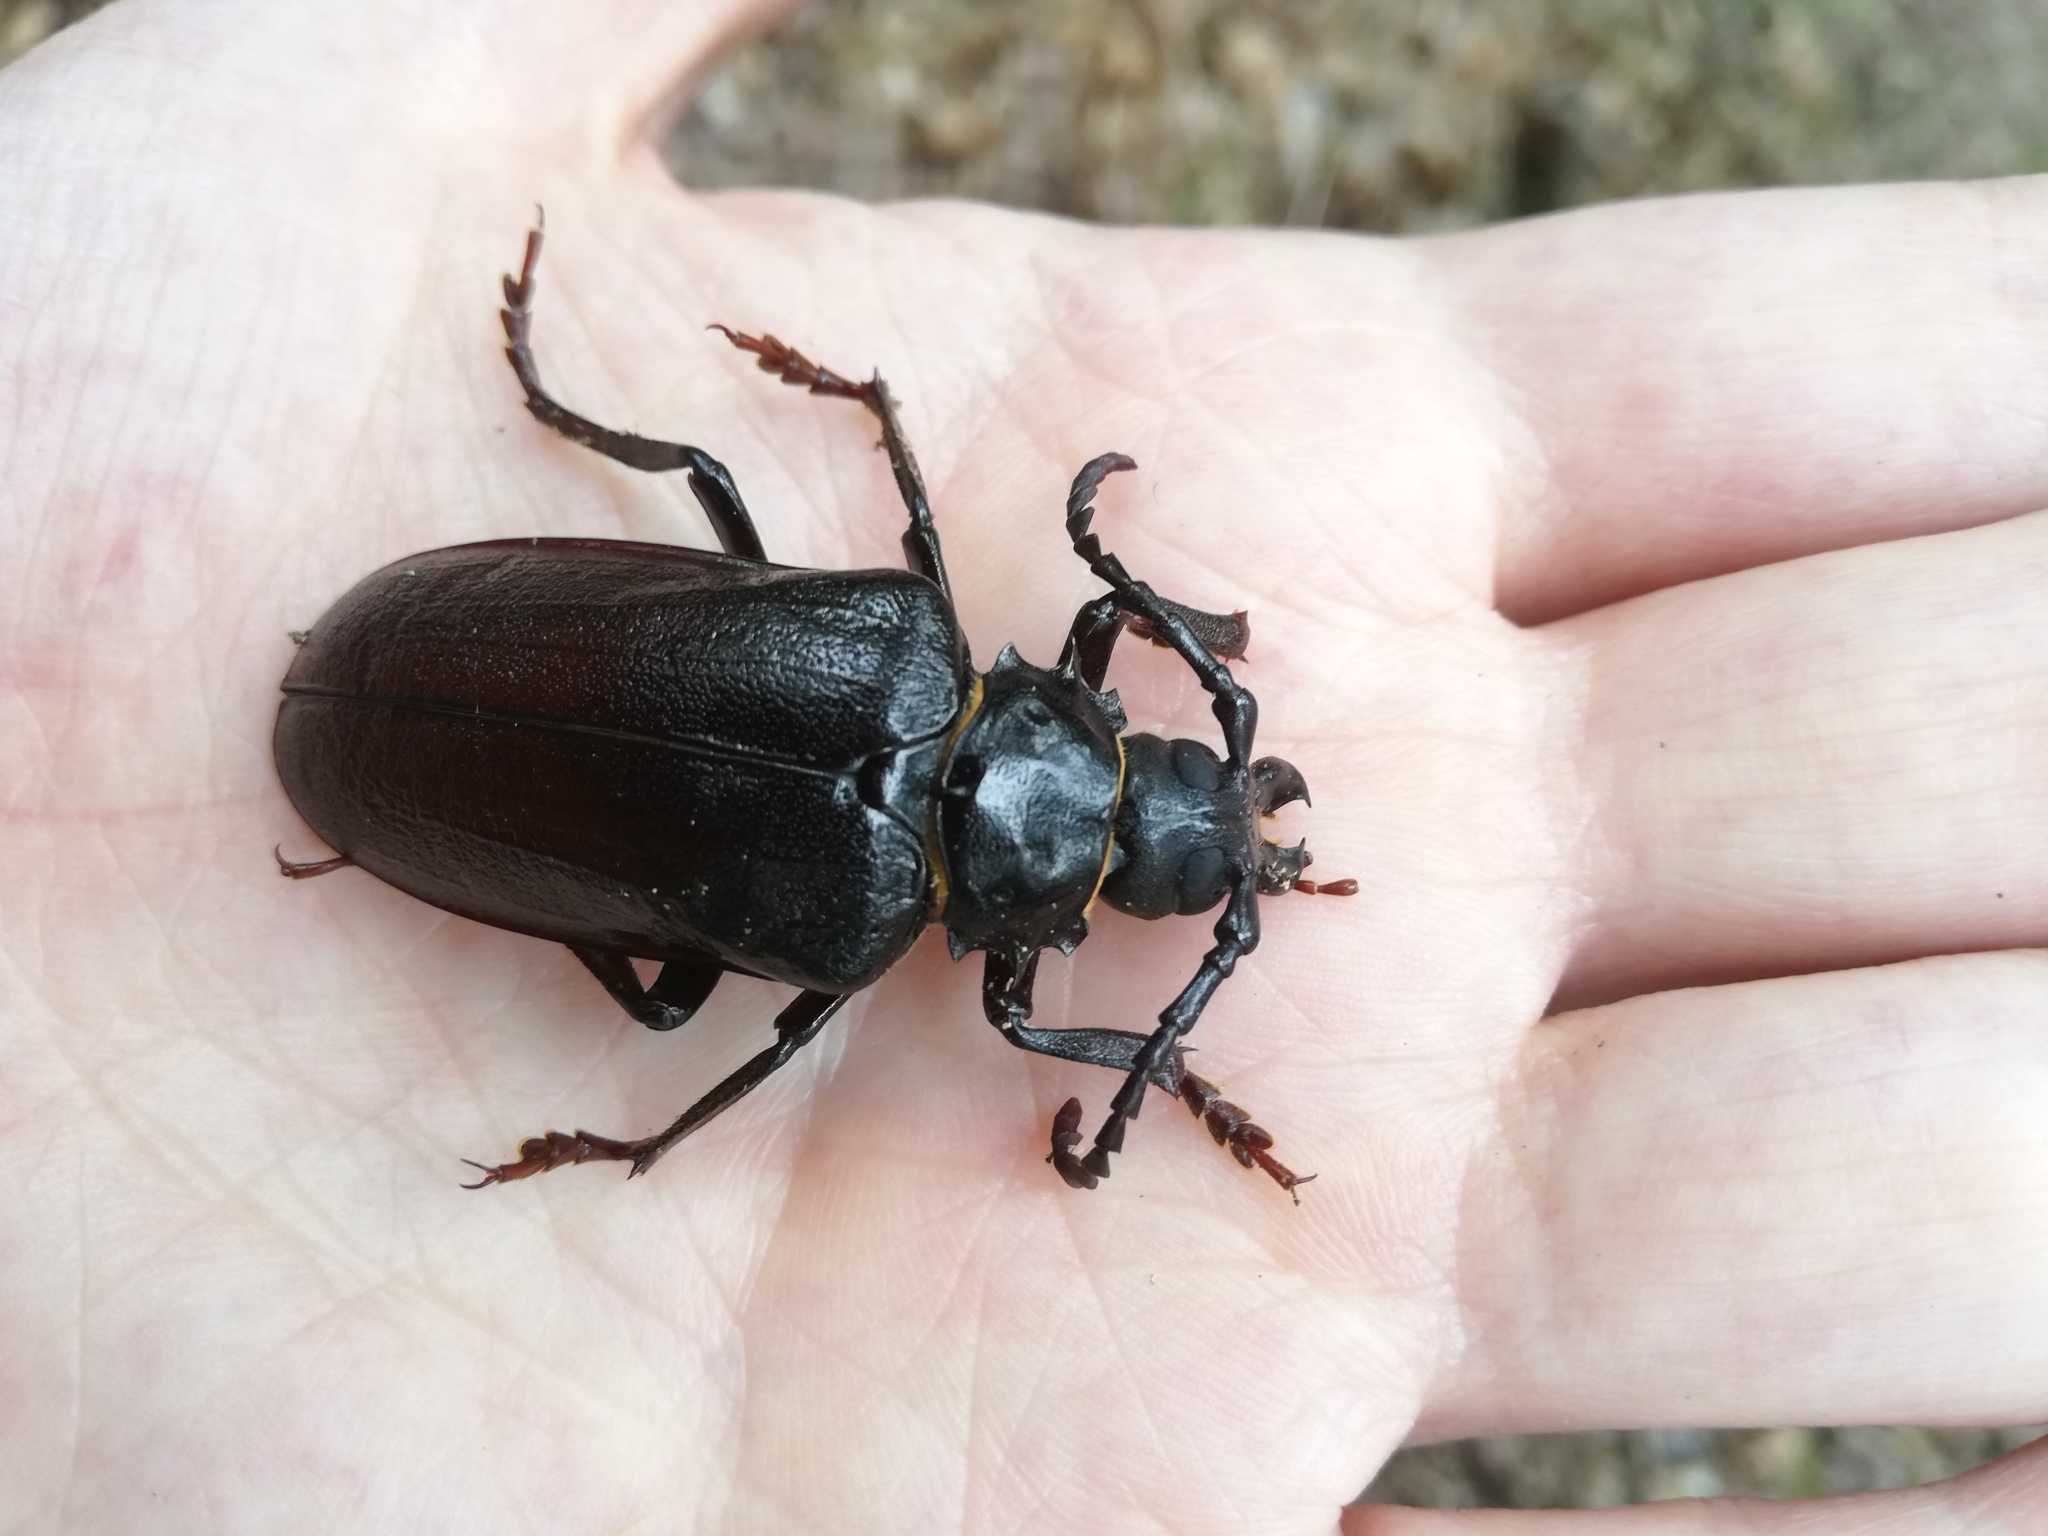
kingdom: Animalia
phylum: Arthropoda
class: Insecta
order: Coleoptera
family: Cerambycidae
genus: Prionus
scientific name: Prionus coriarius
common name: Tanner beetle
